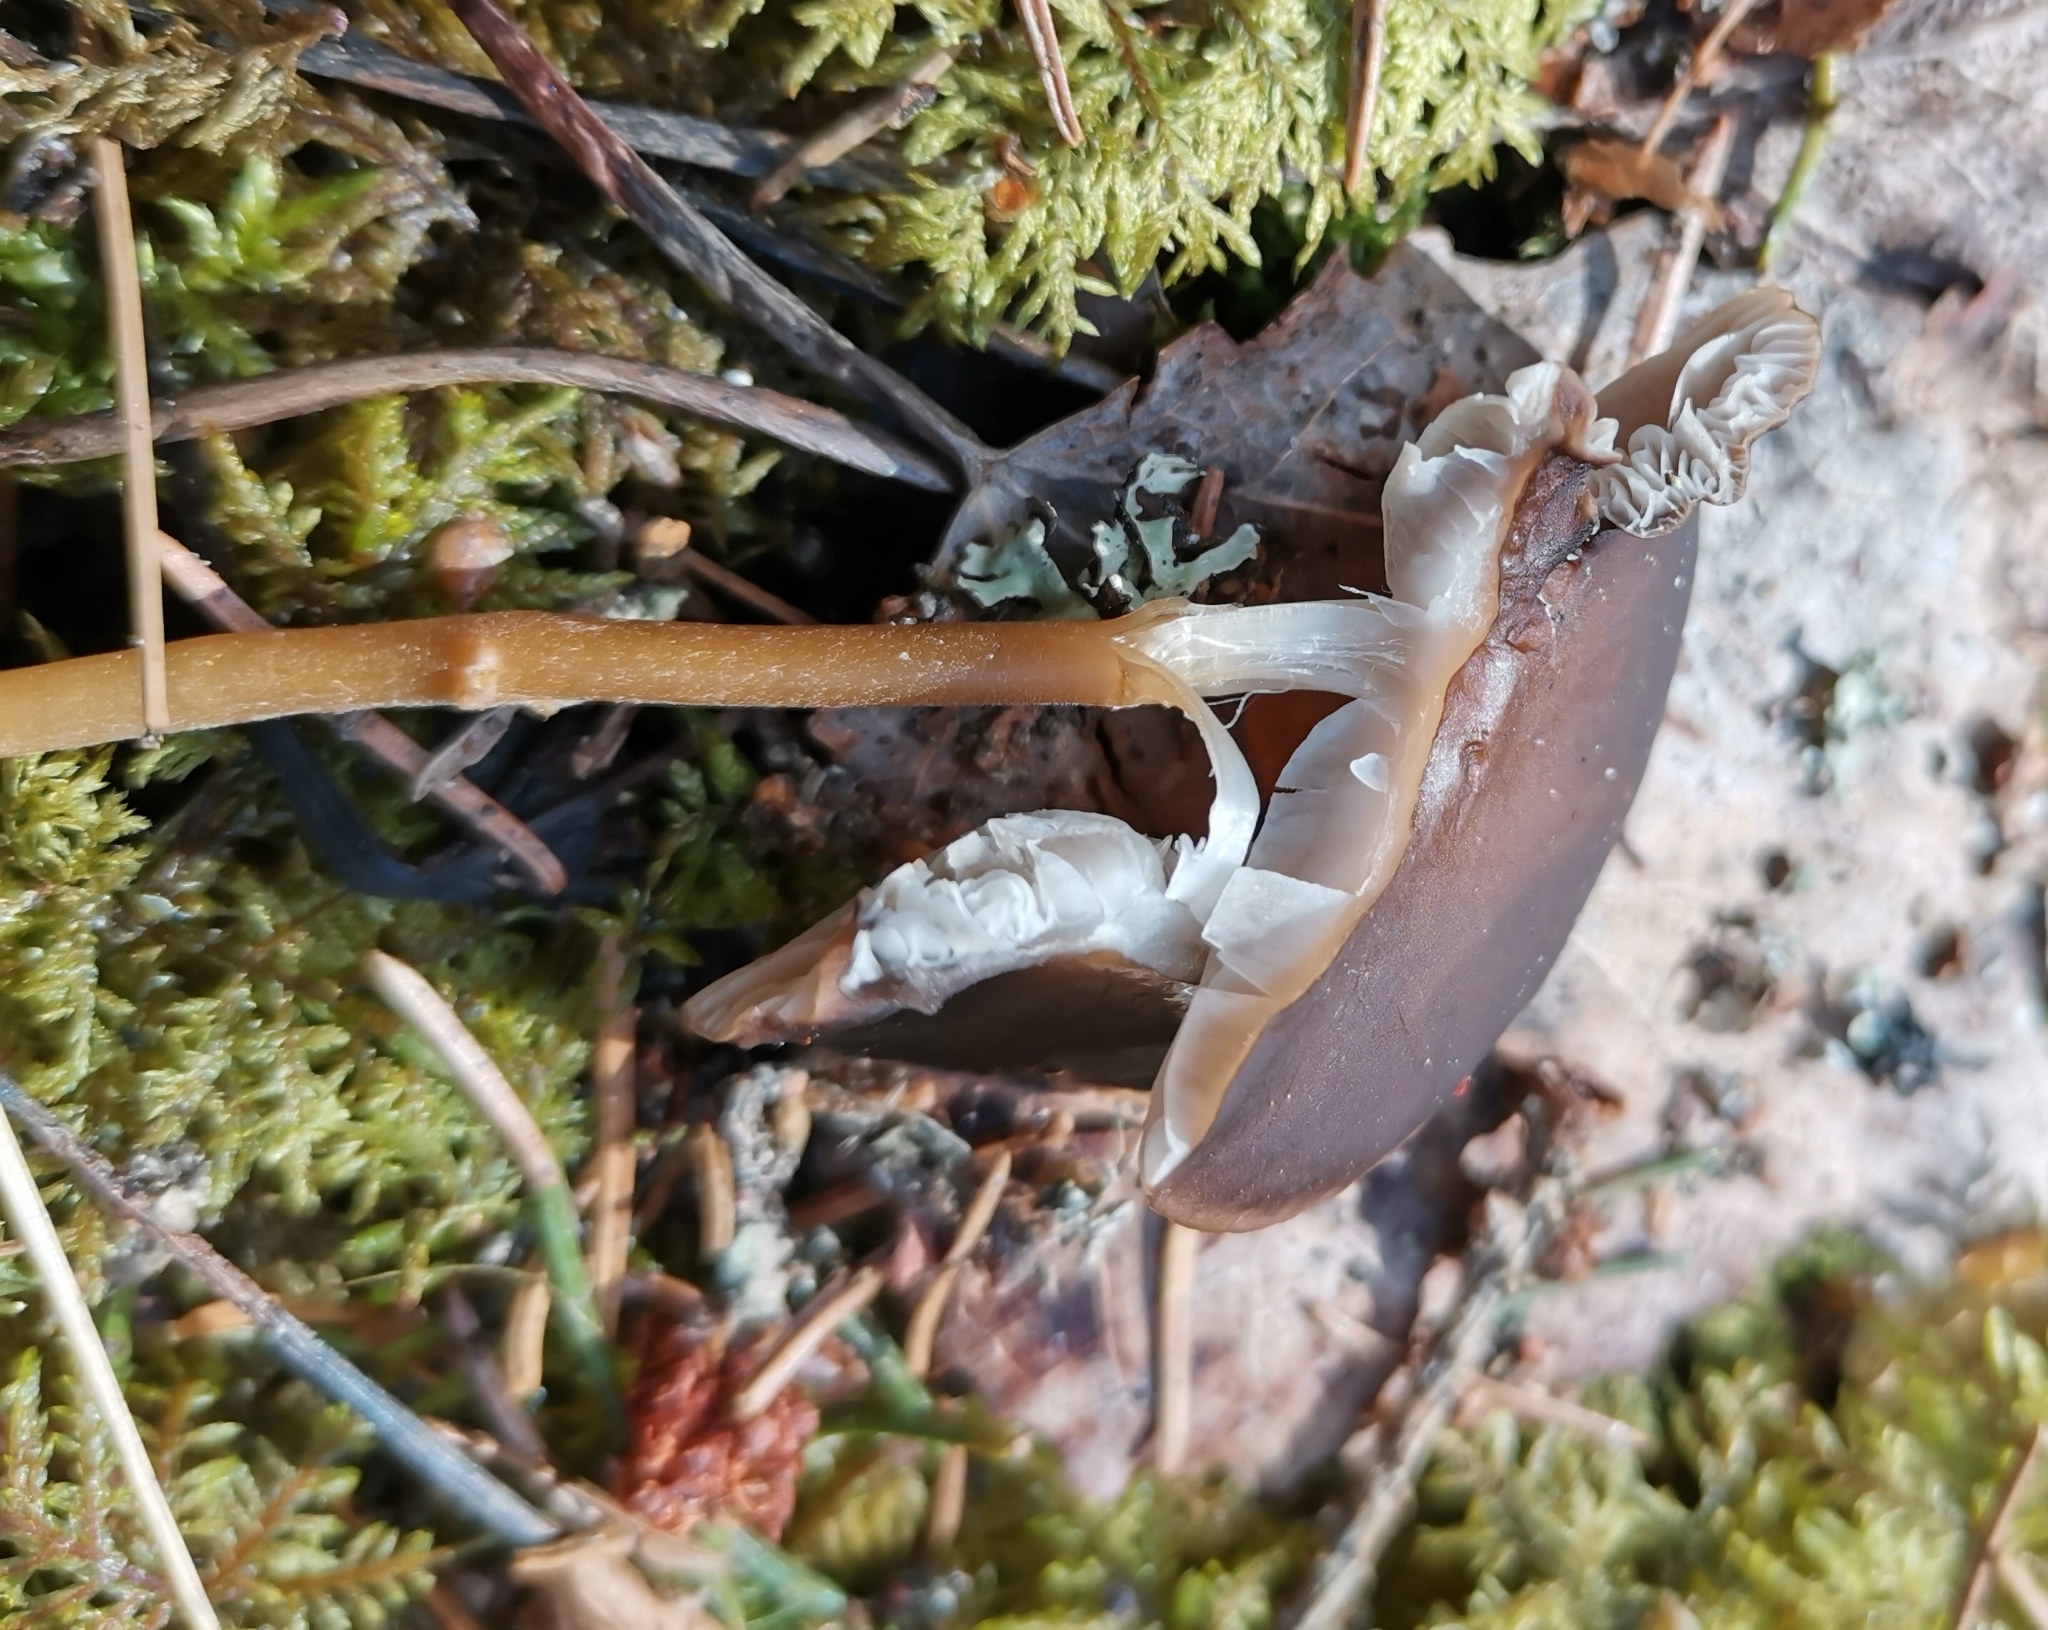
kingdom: Fungi
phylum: Basidiomycota
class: Agaricomycetes
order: Agaricales
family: Physalacriaceae
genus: Strobilurus
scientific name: Strobilurus esculentus
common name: Sprucecone cap
